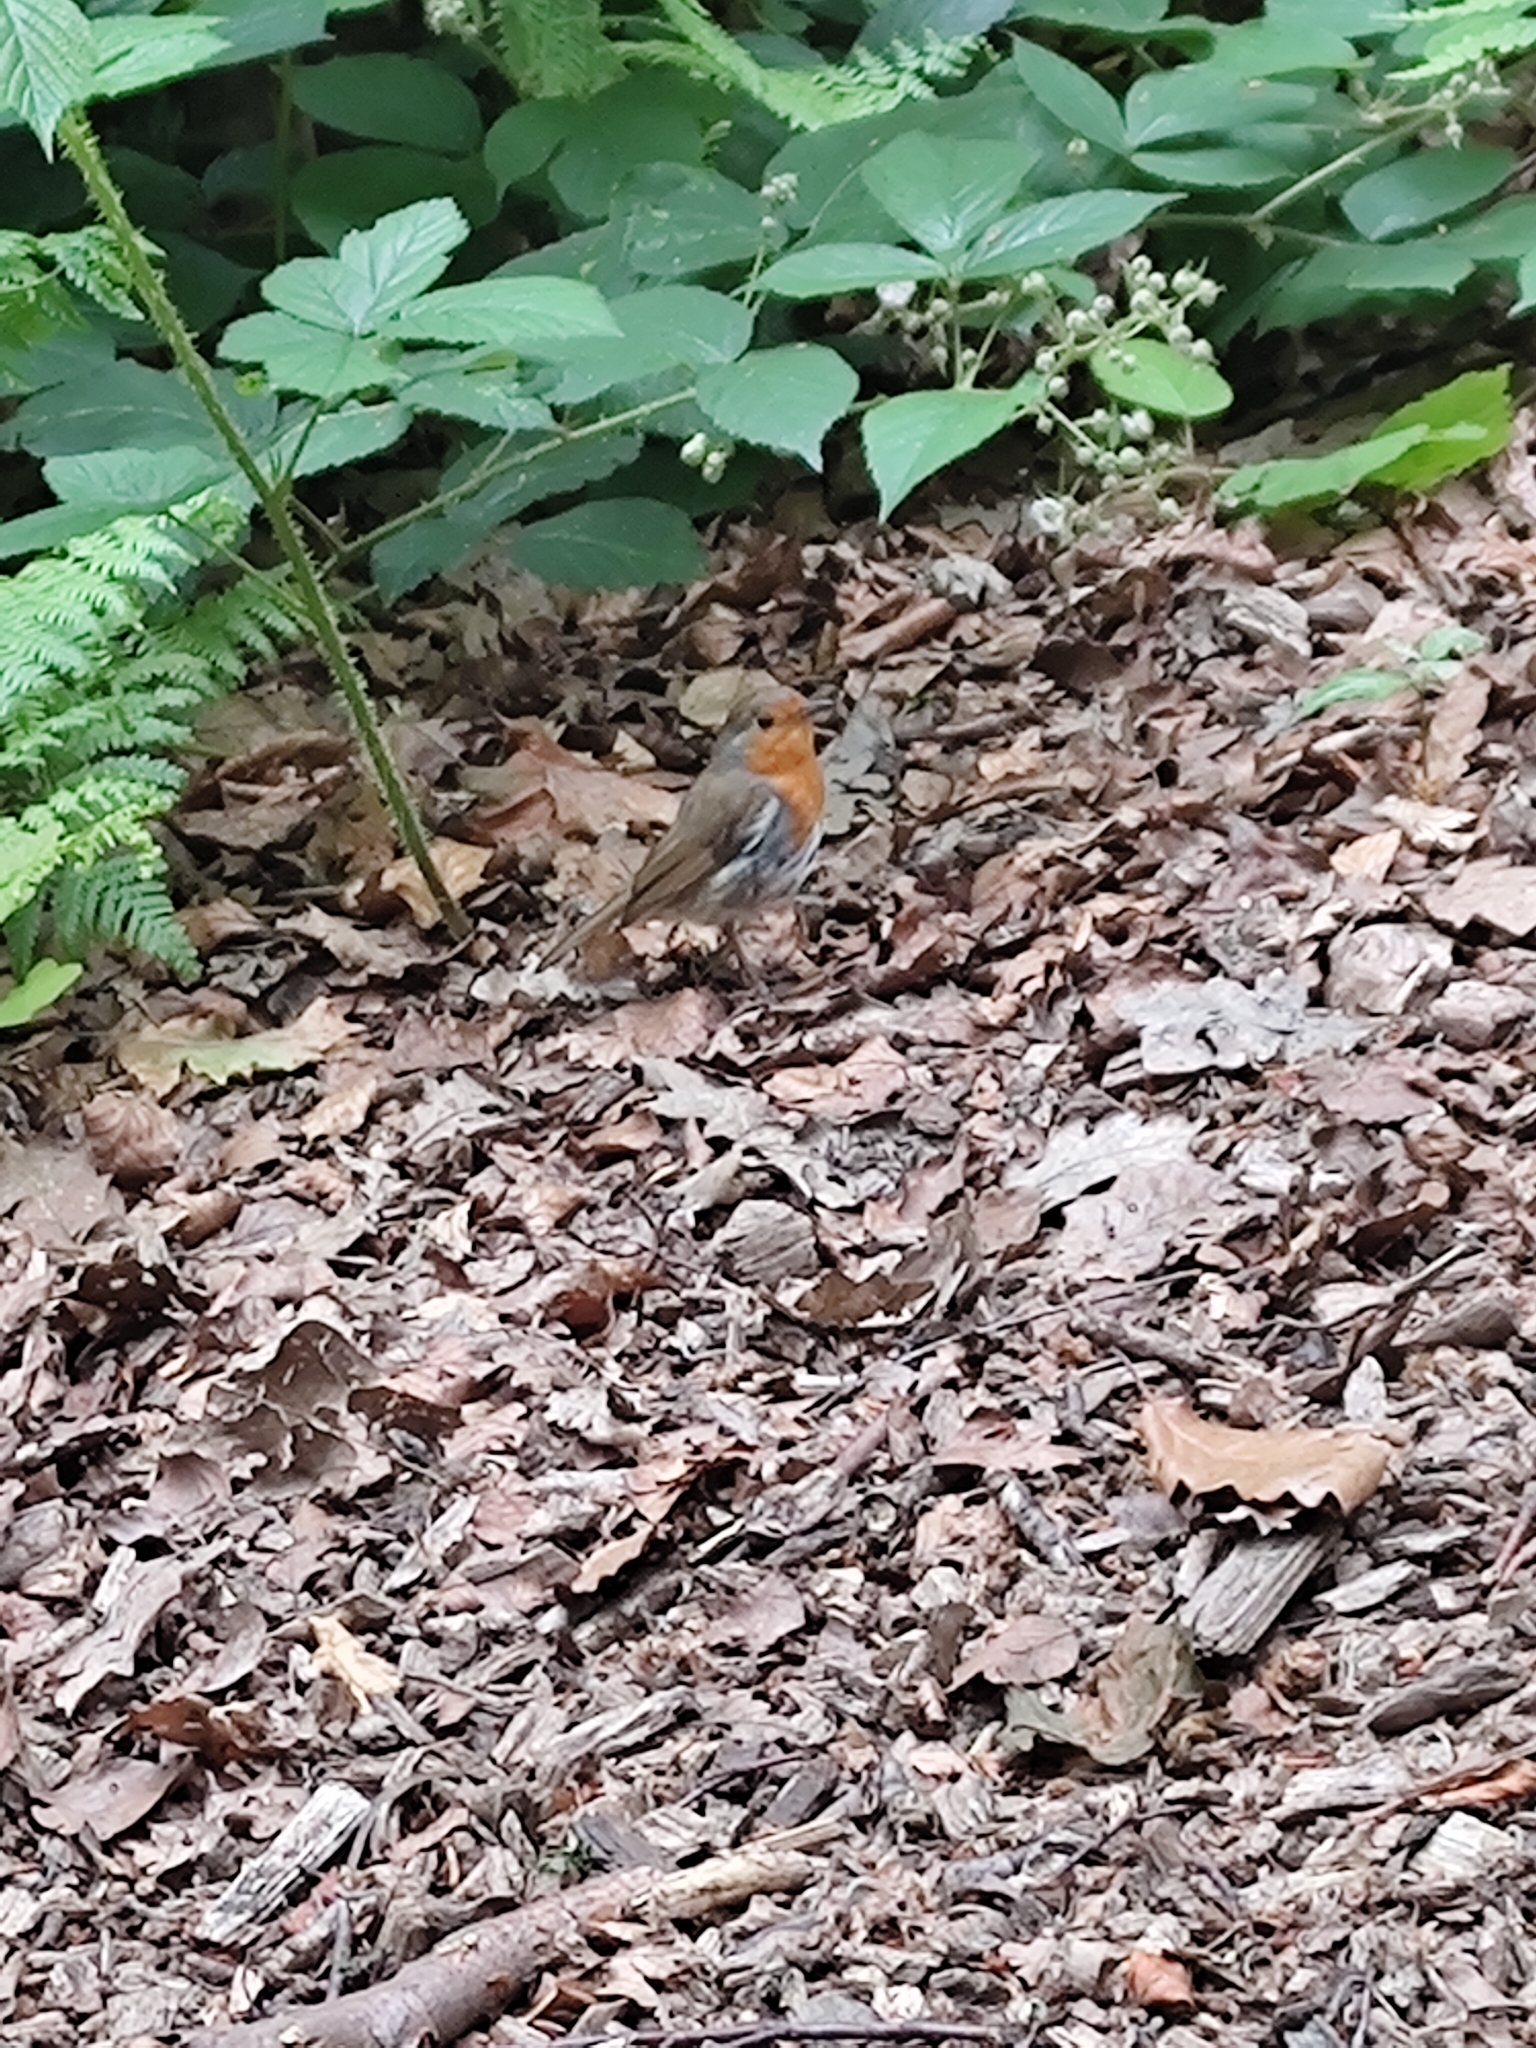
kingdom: Animalia
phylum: Chordata
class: Aves
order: Passeriformes
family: Muscicapidae
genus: Erithacus
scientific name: Erithacus rubecula
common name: European robin
